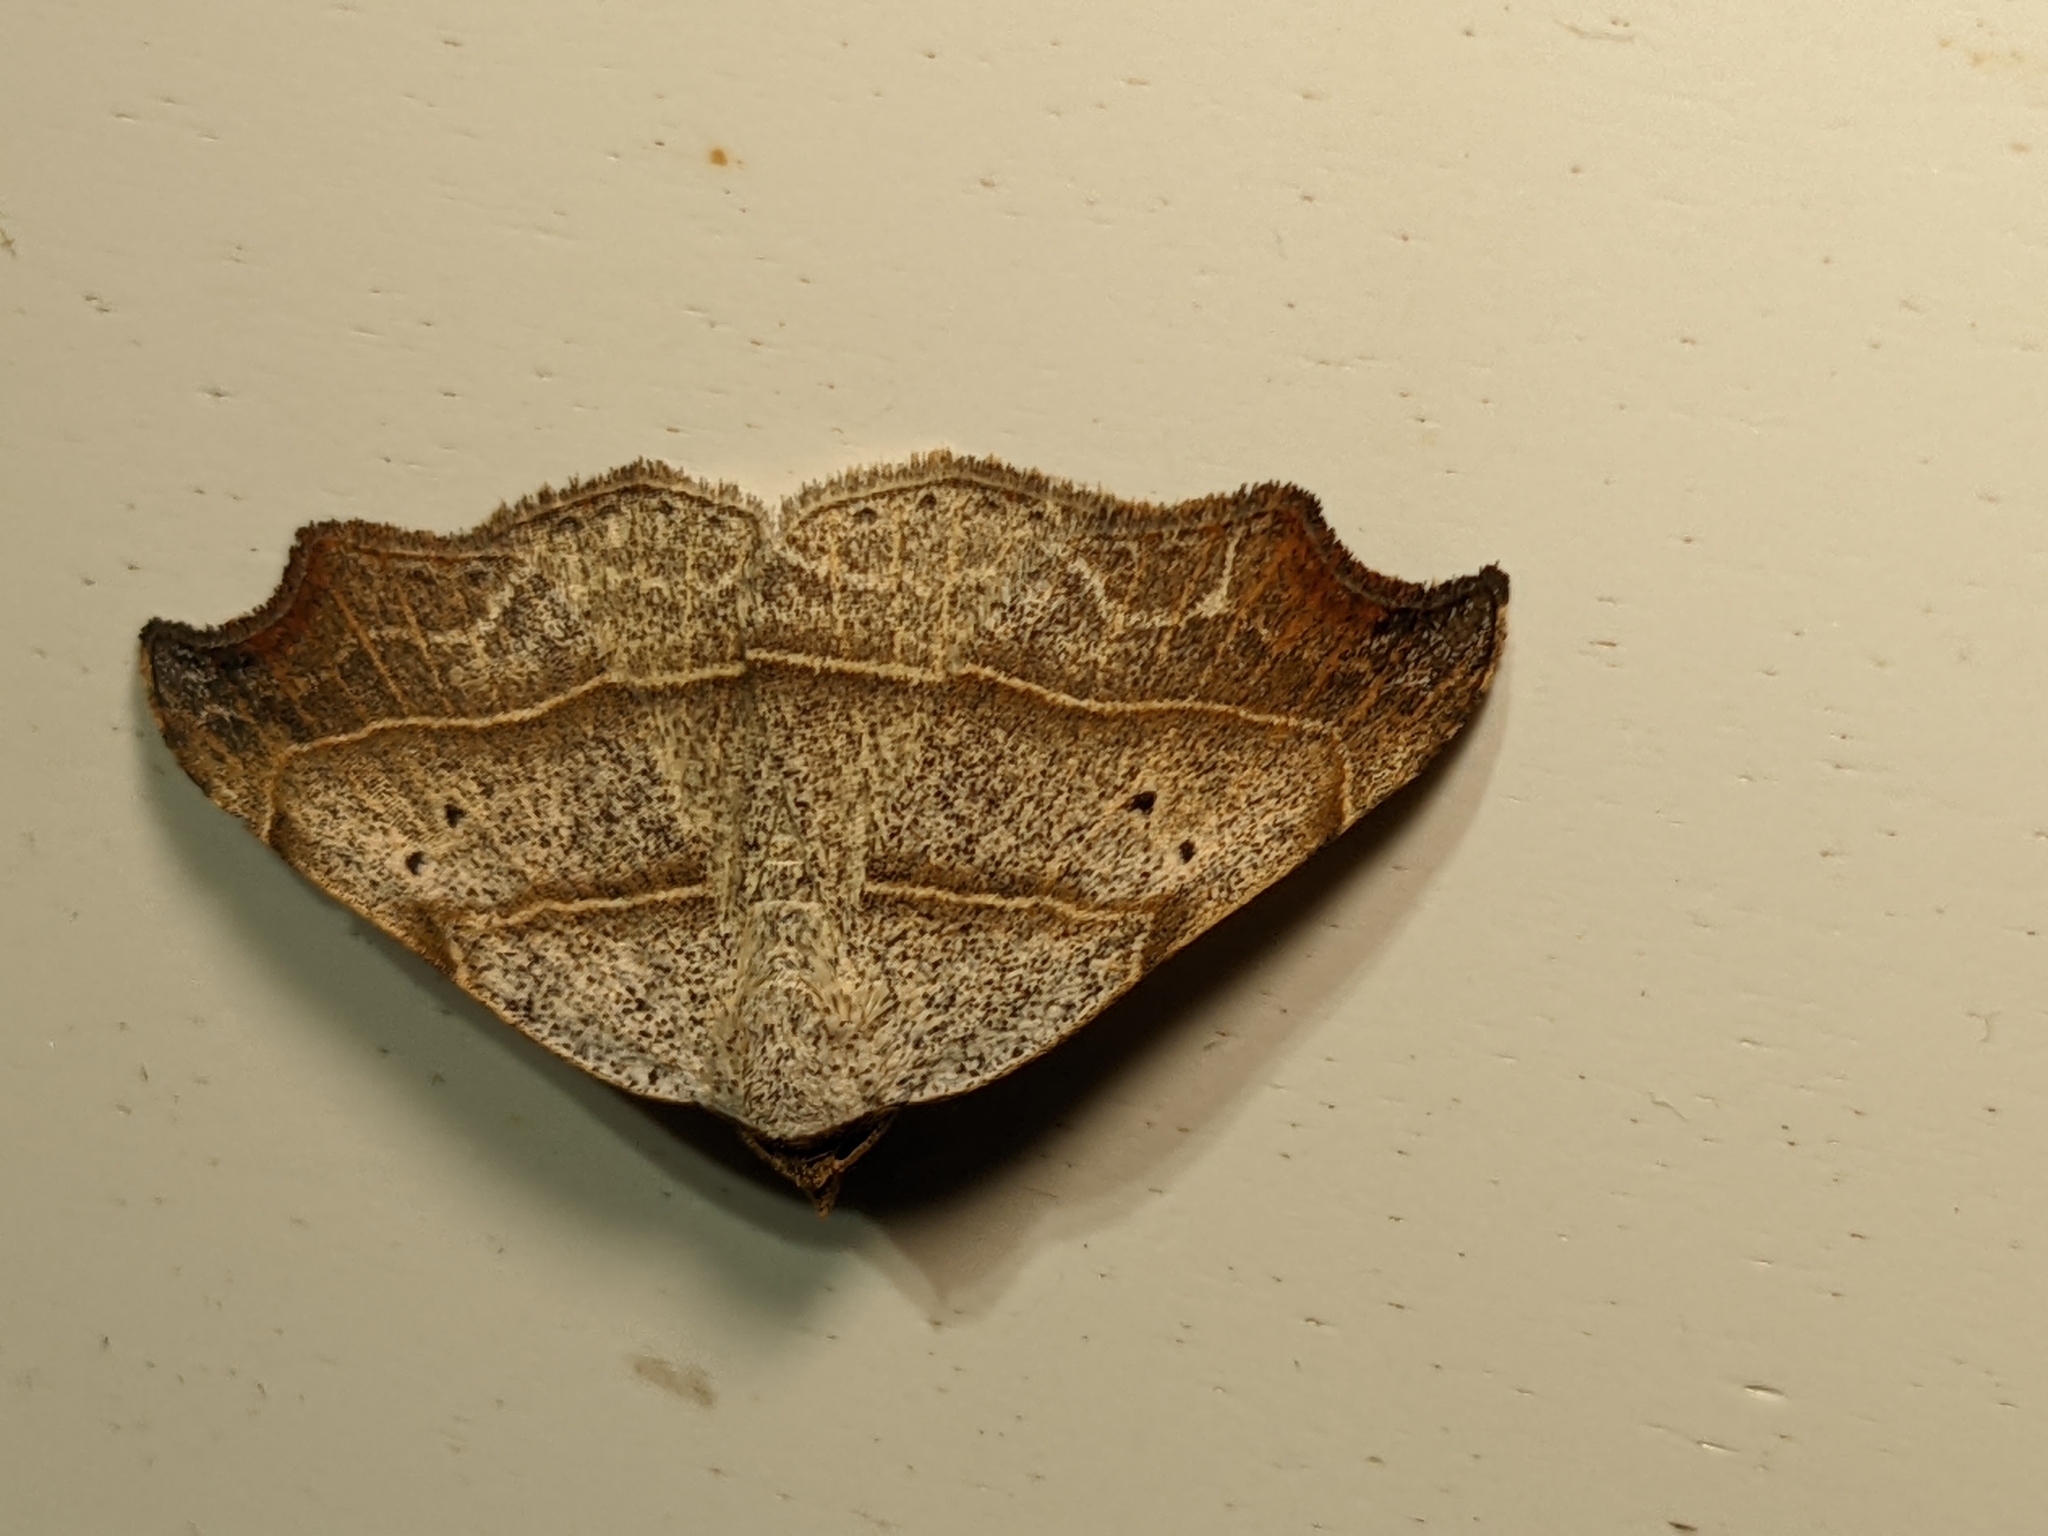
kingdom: Animalia
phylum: Arthropoda
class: Insecta
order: Lepidoptera
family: Erebidae
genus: Laspeyria
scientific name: Laspeyria flexula
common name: Beautiful hook-tip
